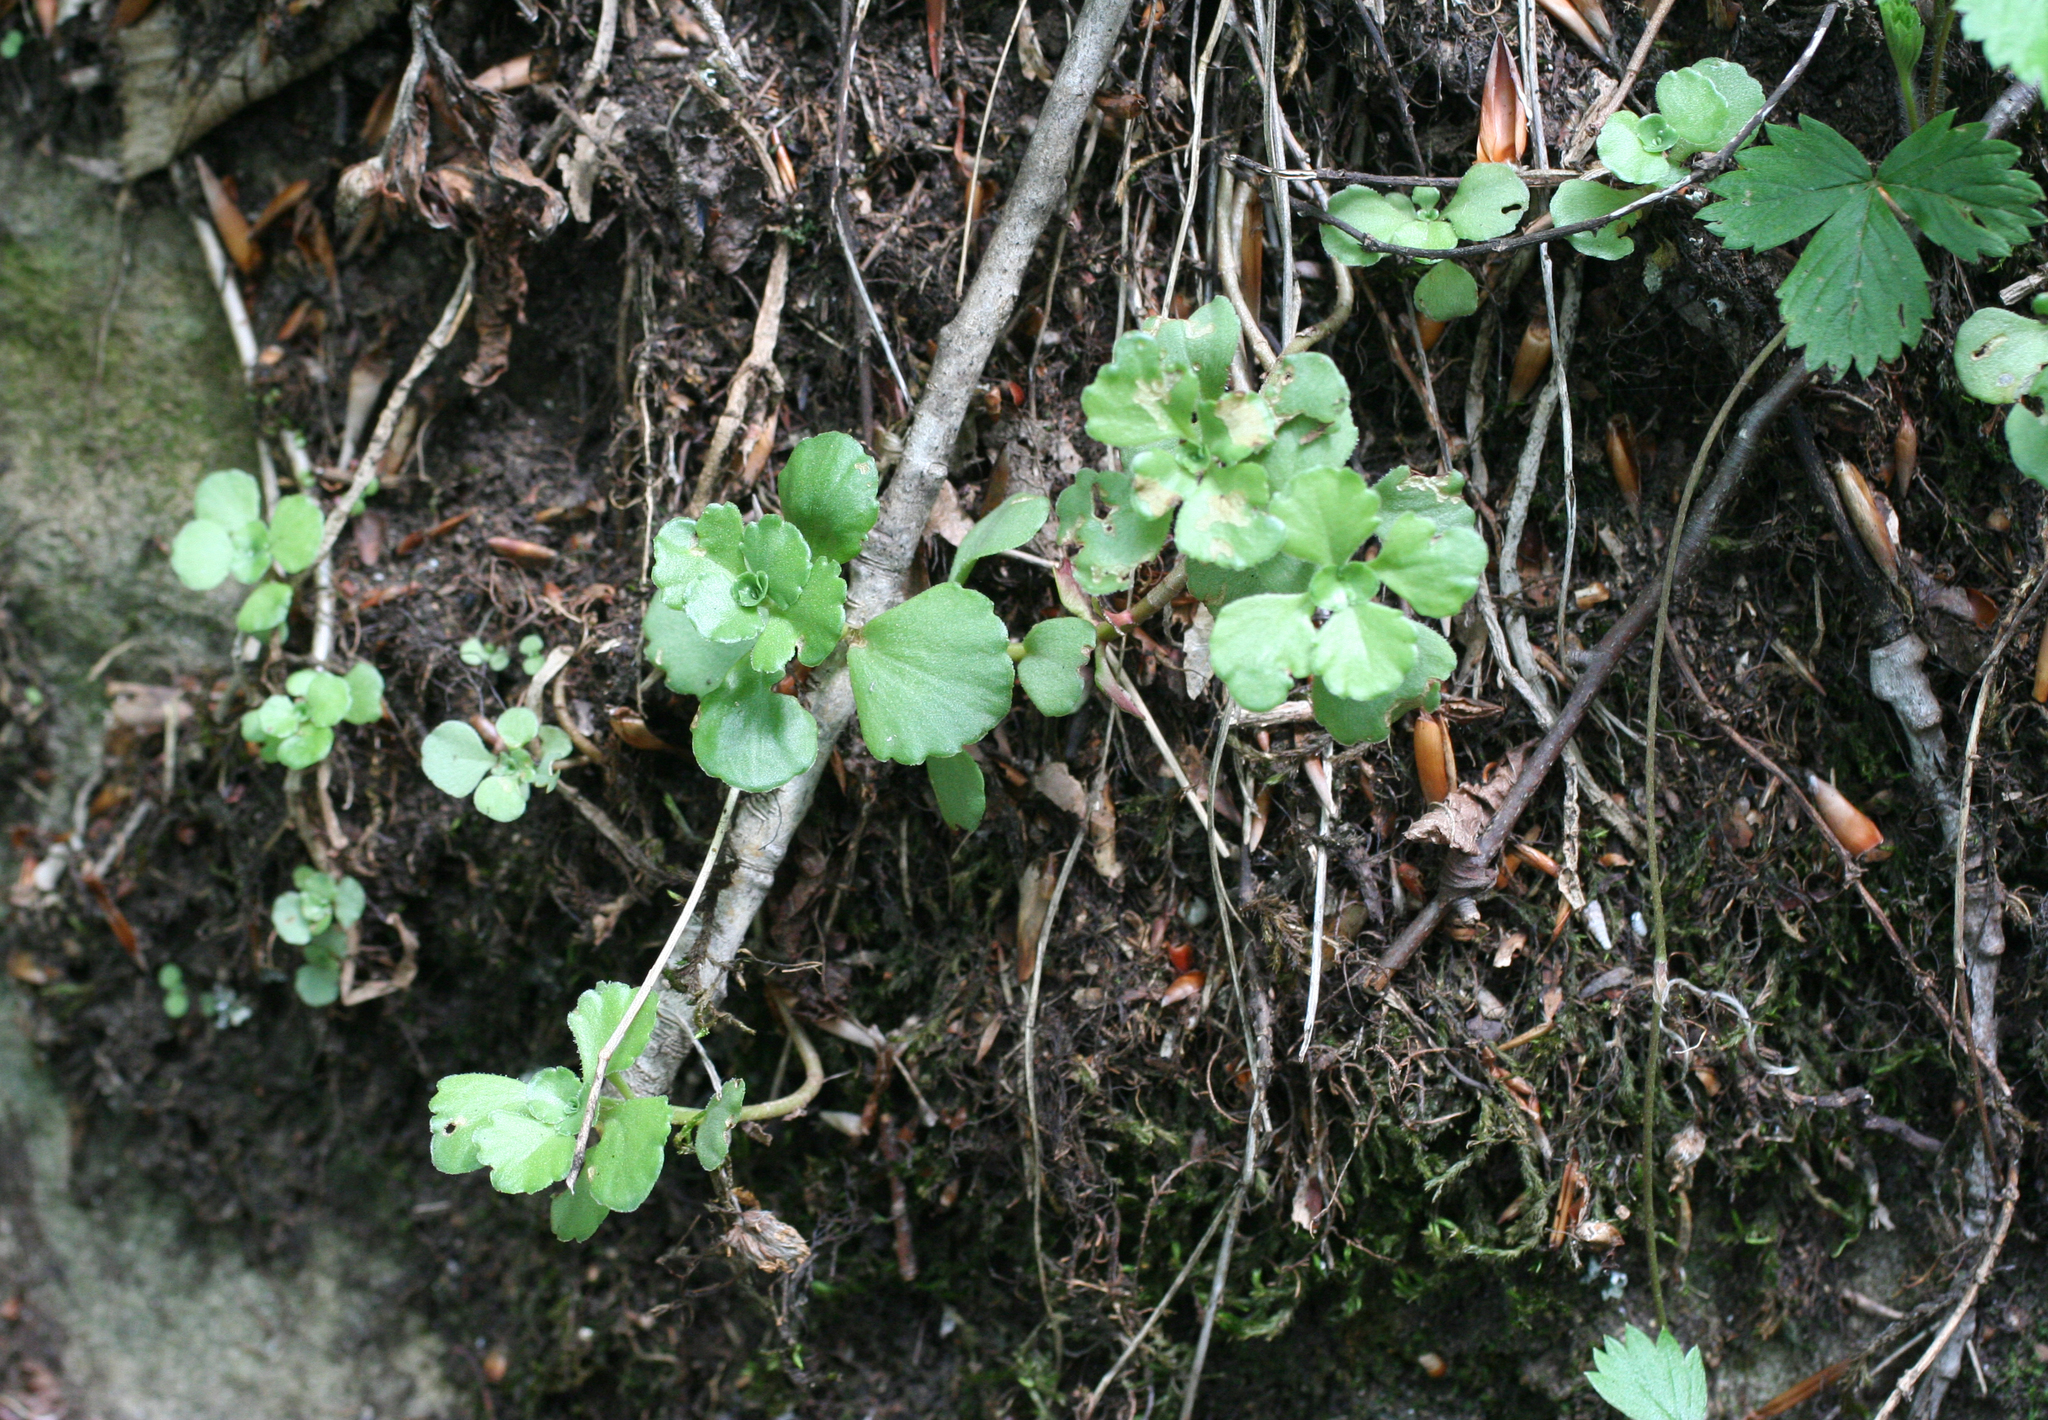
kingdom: Plantae
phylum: Tracheophyta
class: Magnoliopsida
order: Saxifragales
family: Crassulaceae
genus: Phedimus
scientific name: Phedimus spurius
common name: Caucasian stonecrop
